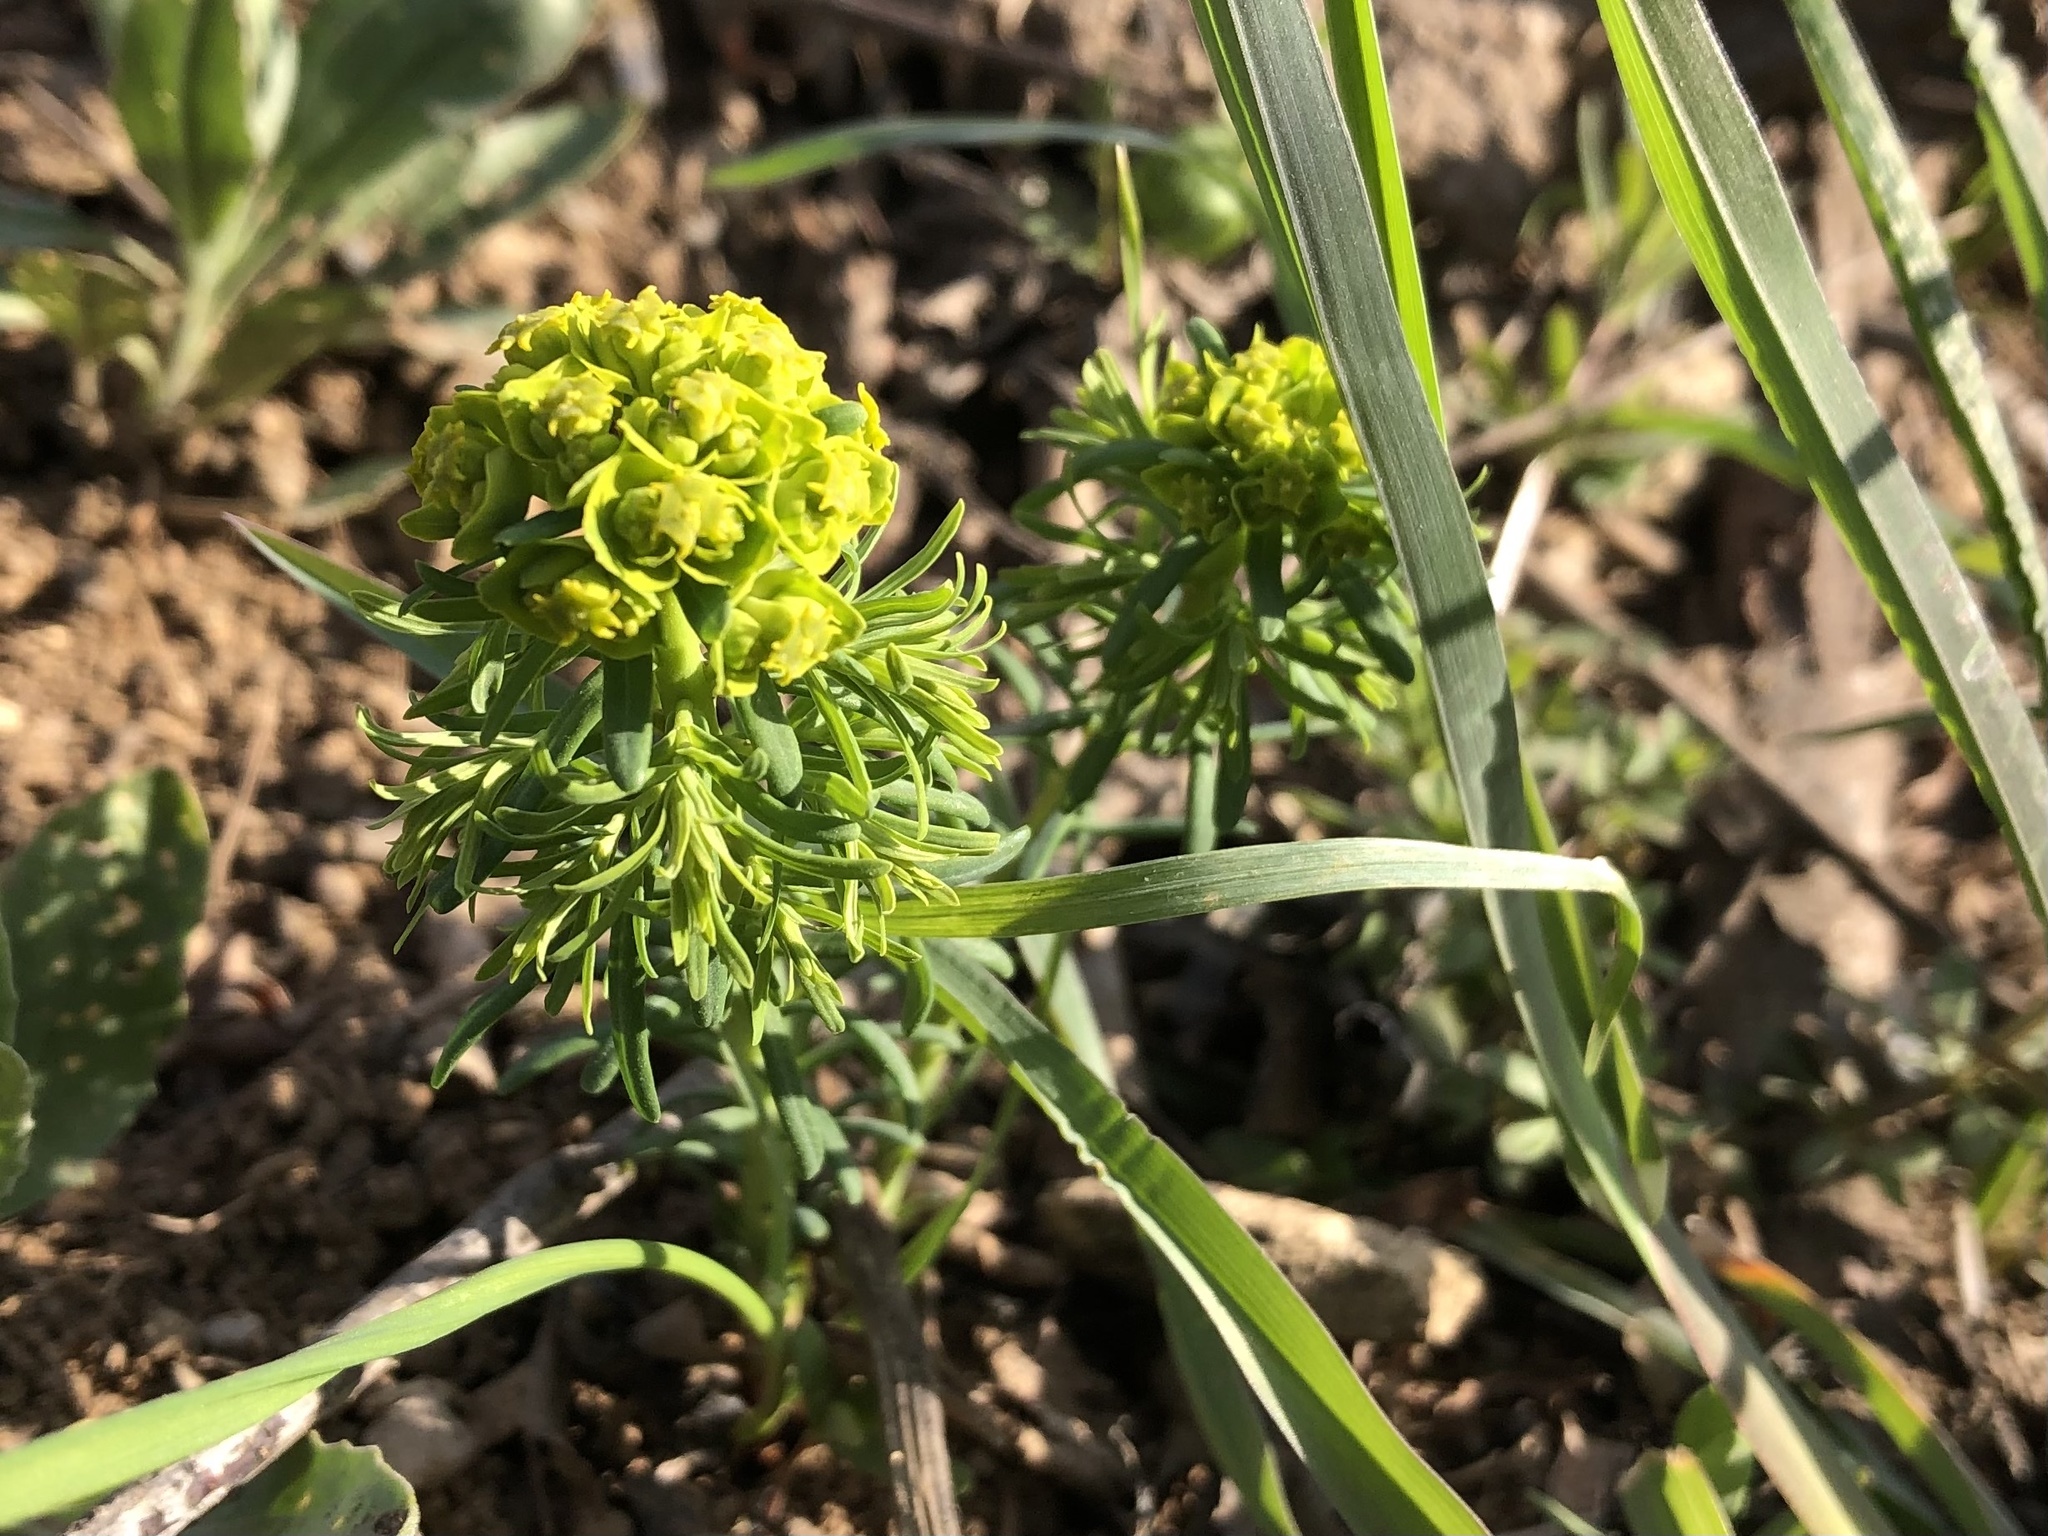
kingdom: Plantae
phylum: Tracheophyta
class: Magnoliopsida
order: Malpighiales
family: Euphorbiaceae
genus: Euphorbia
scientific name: Euphorbia cyparissias
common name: Cypress spurge
